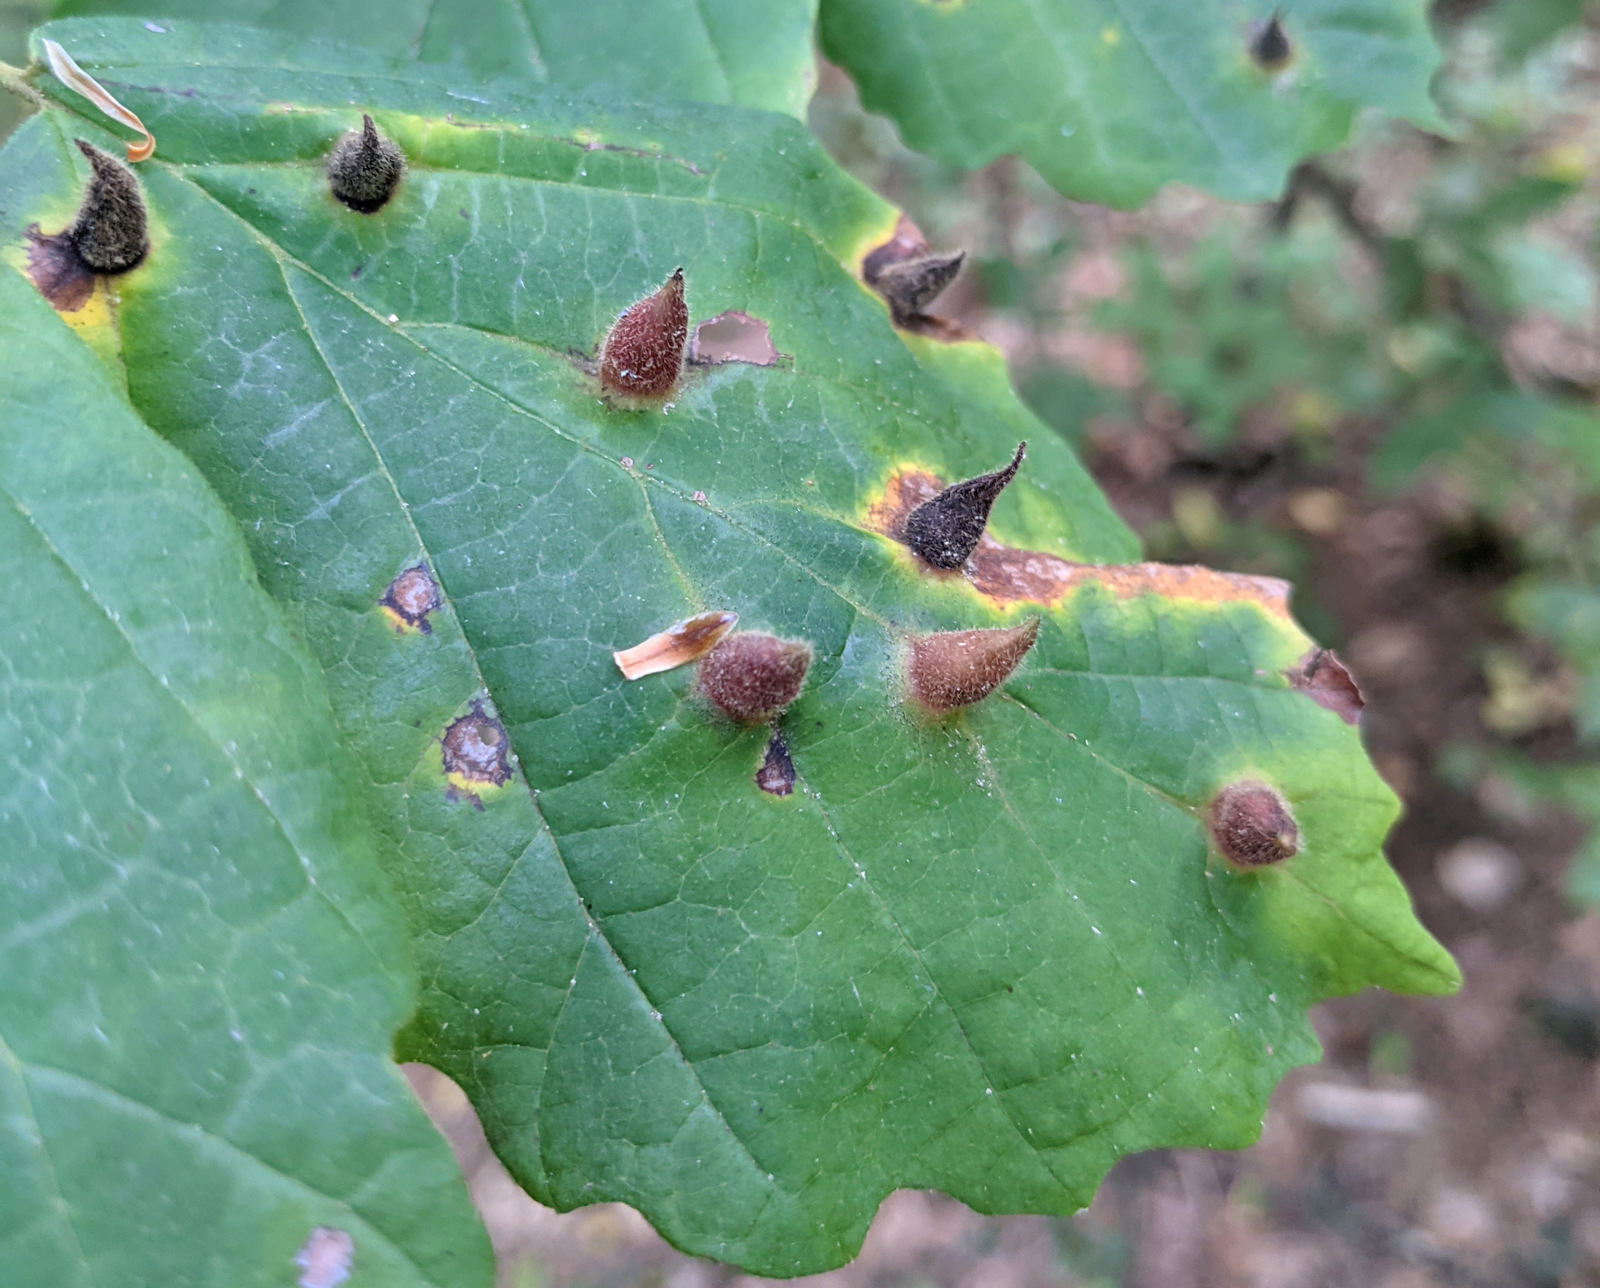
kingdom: Plantae
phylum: Tracheophyta
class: Magnoliopsida
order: Saxifragales
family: Hamamelidaceae
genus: Hamamelis
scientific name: Hamamelis virginiana
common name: Witch-hazel
